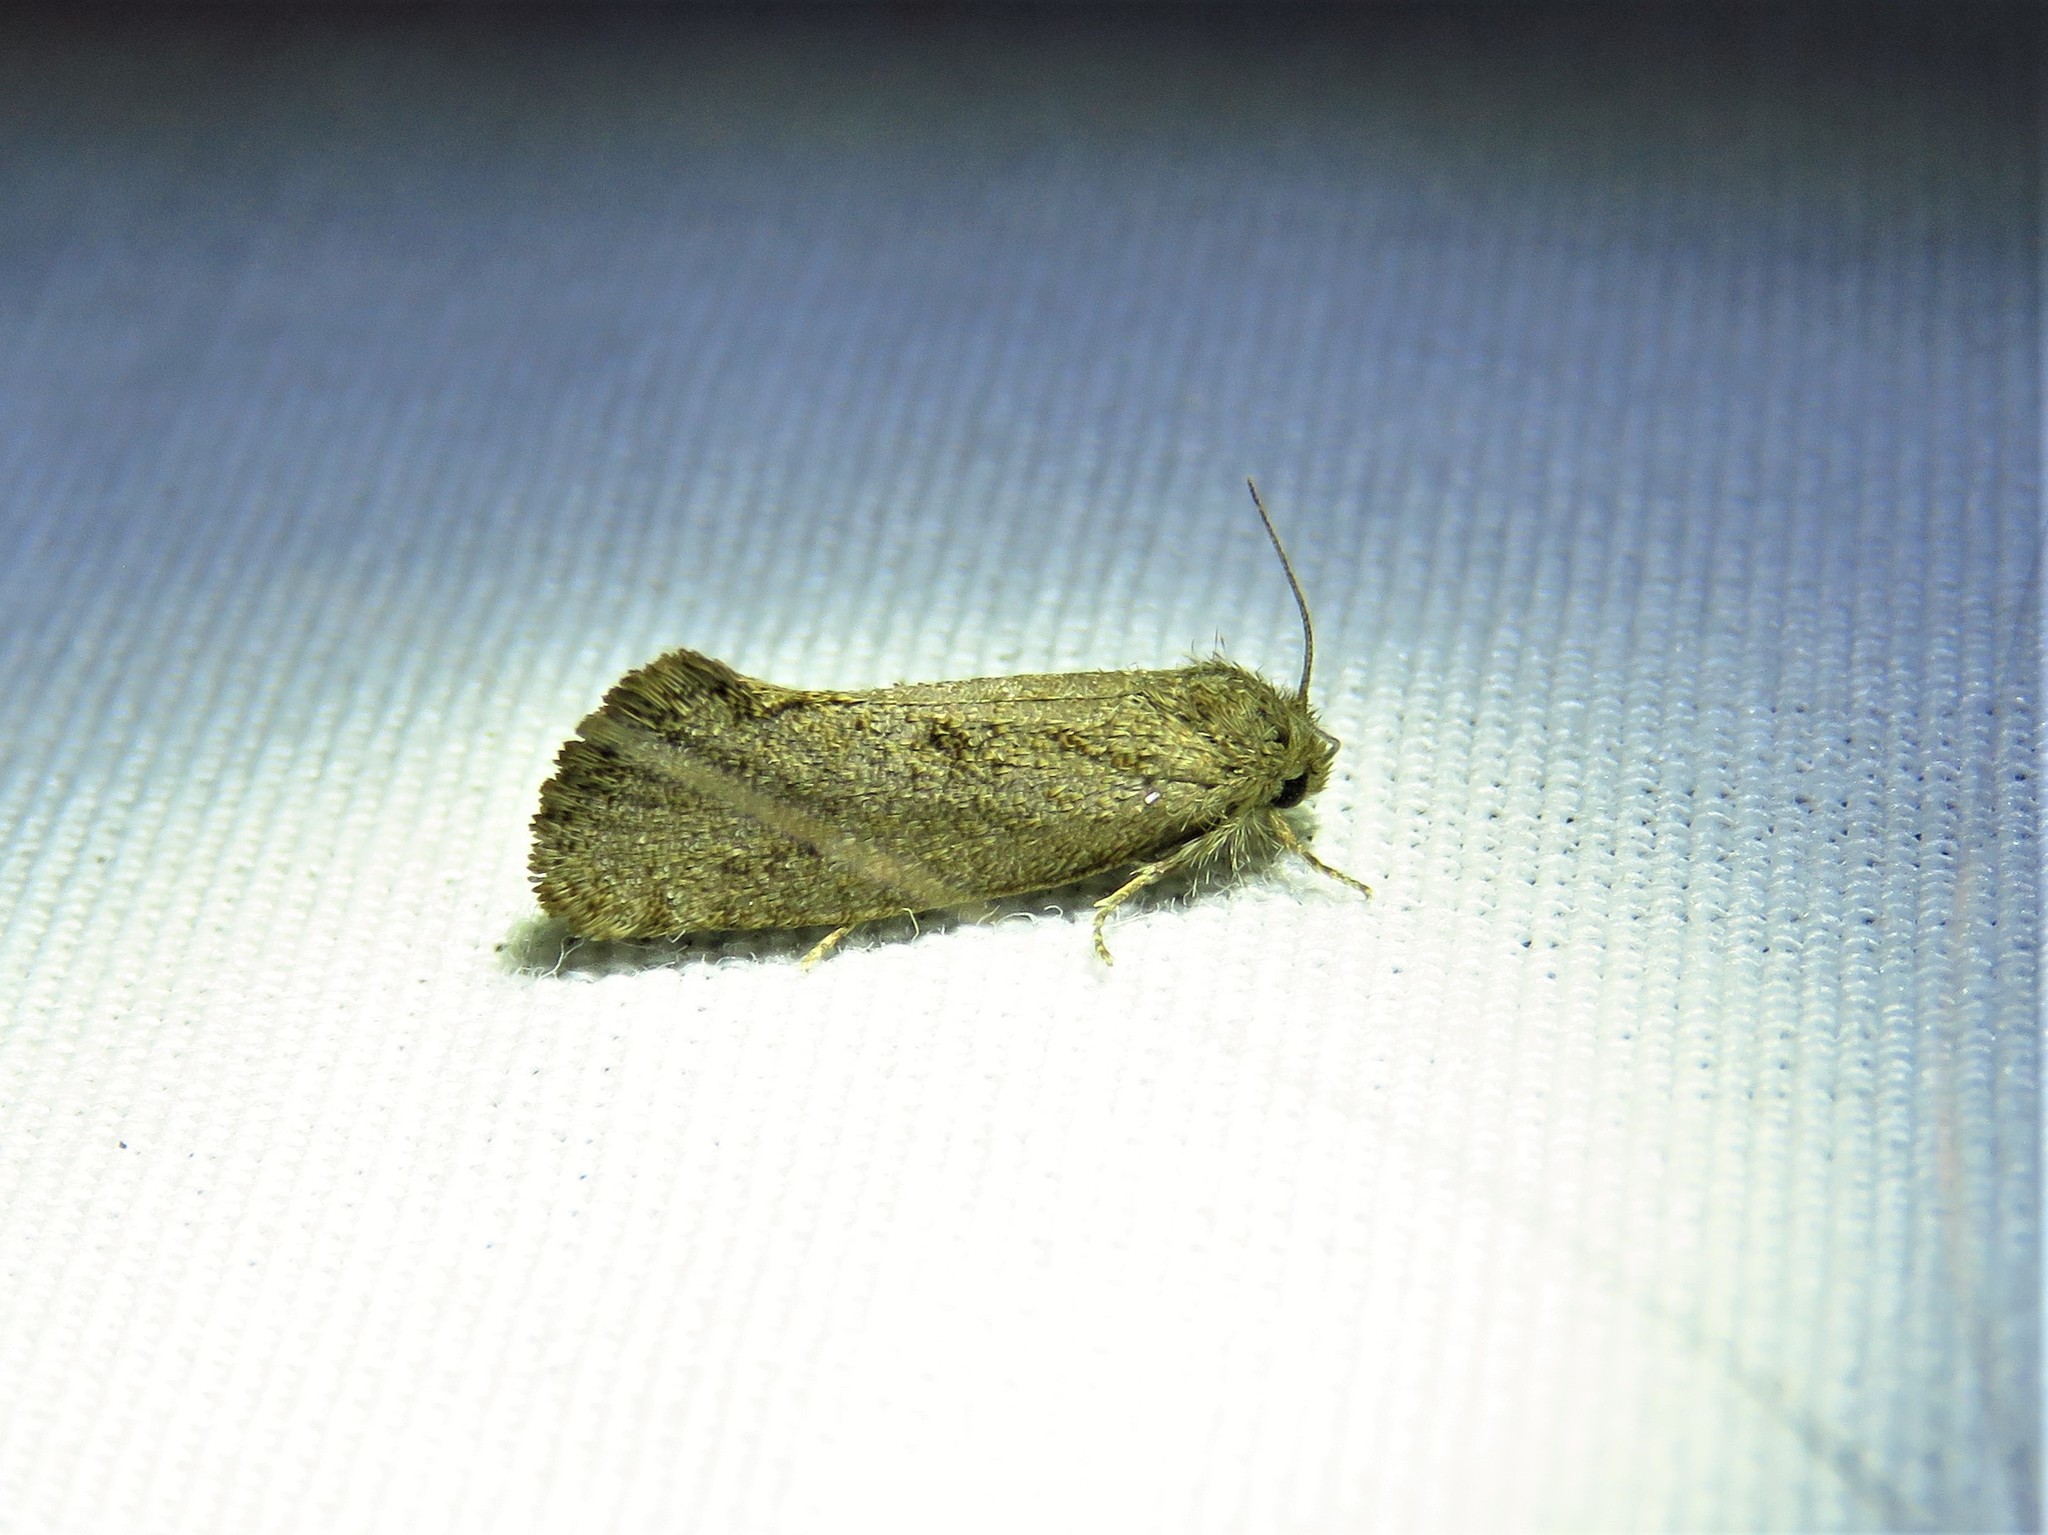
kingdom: Animalia
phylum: Arthropoda
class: Insecta
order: Lepidoptera
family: Tineidae
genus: Acrolophus
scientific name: Acrolophus heppneri
